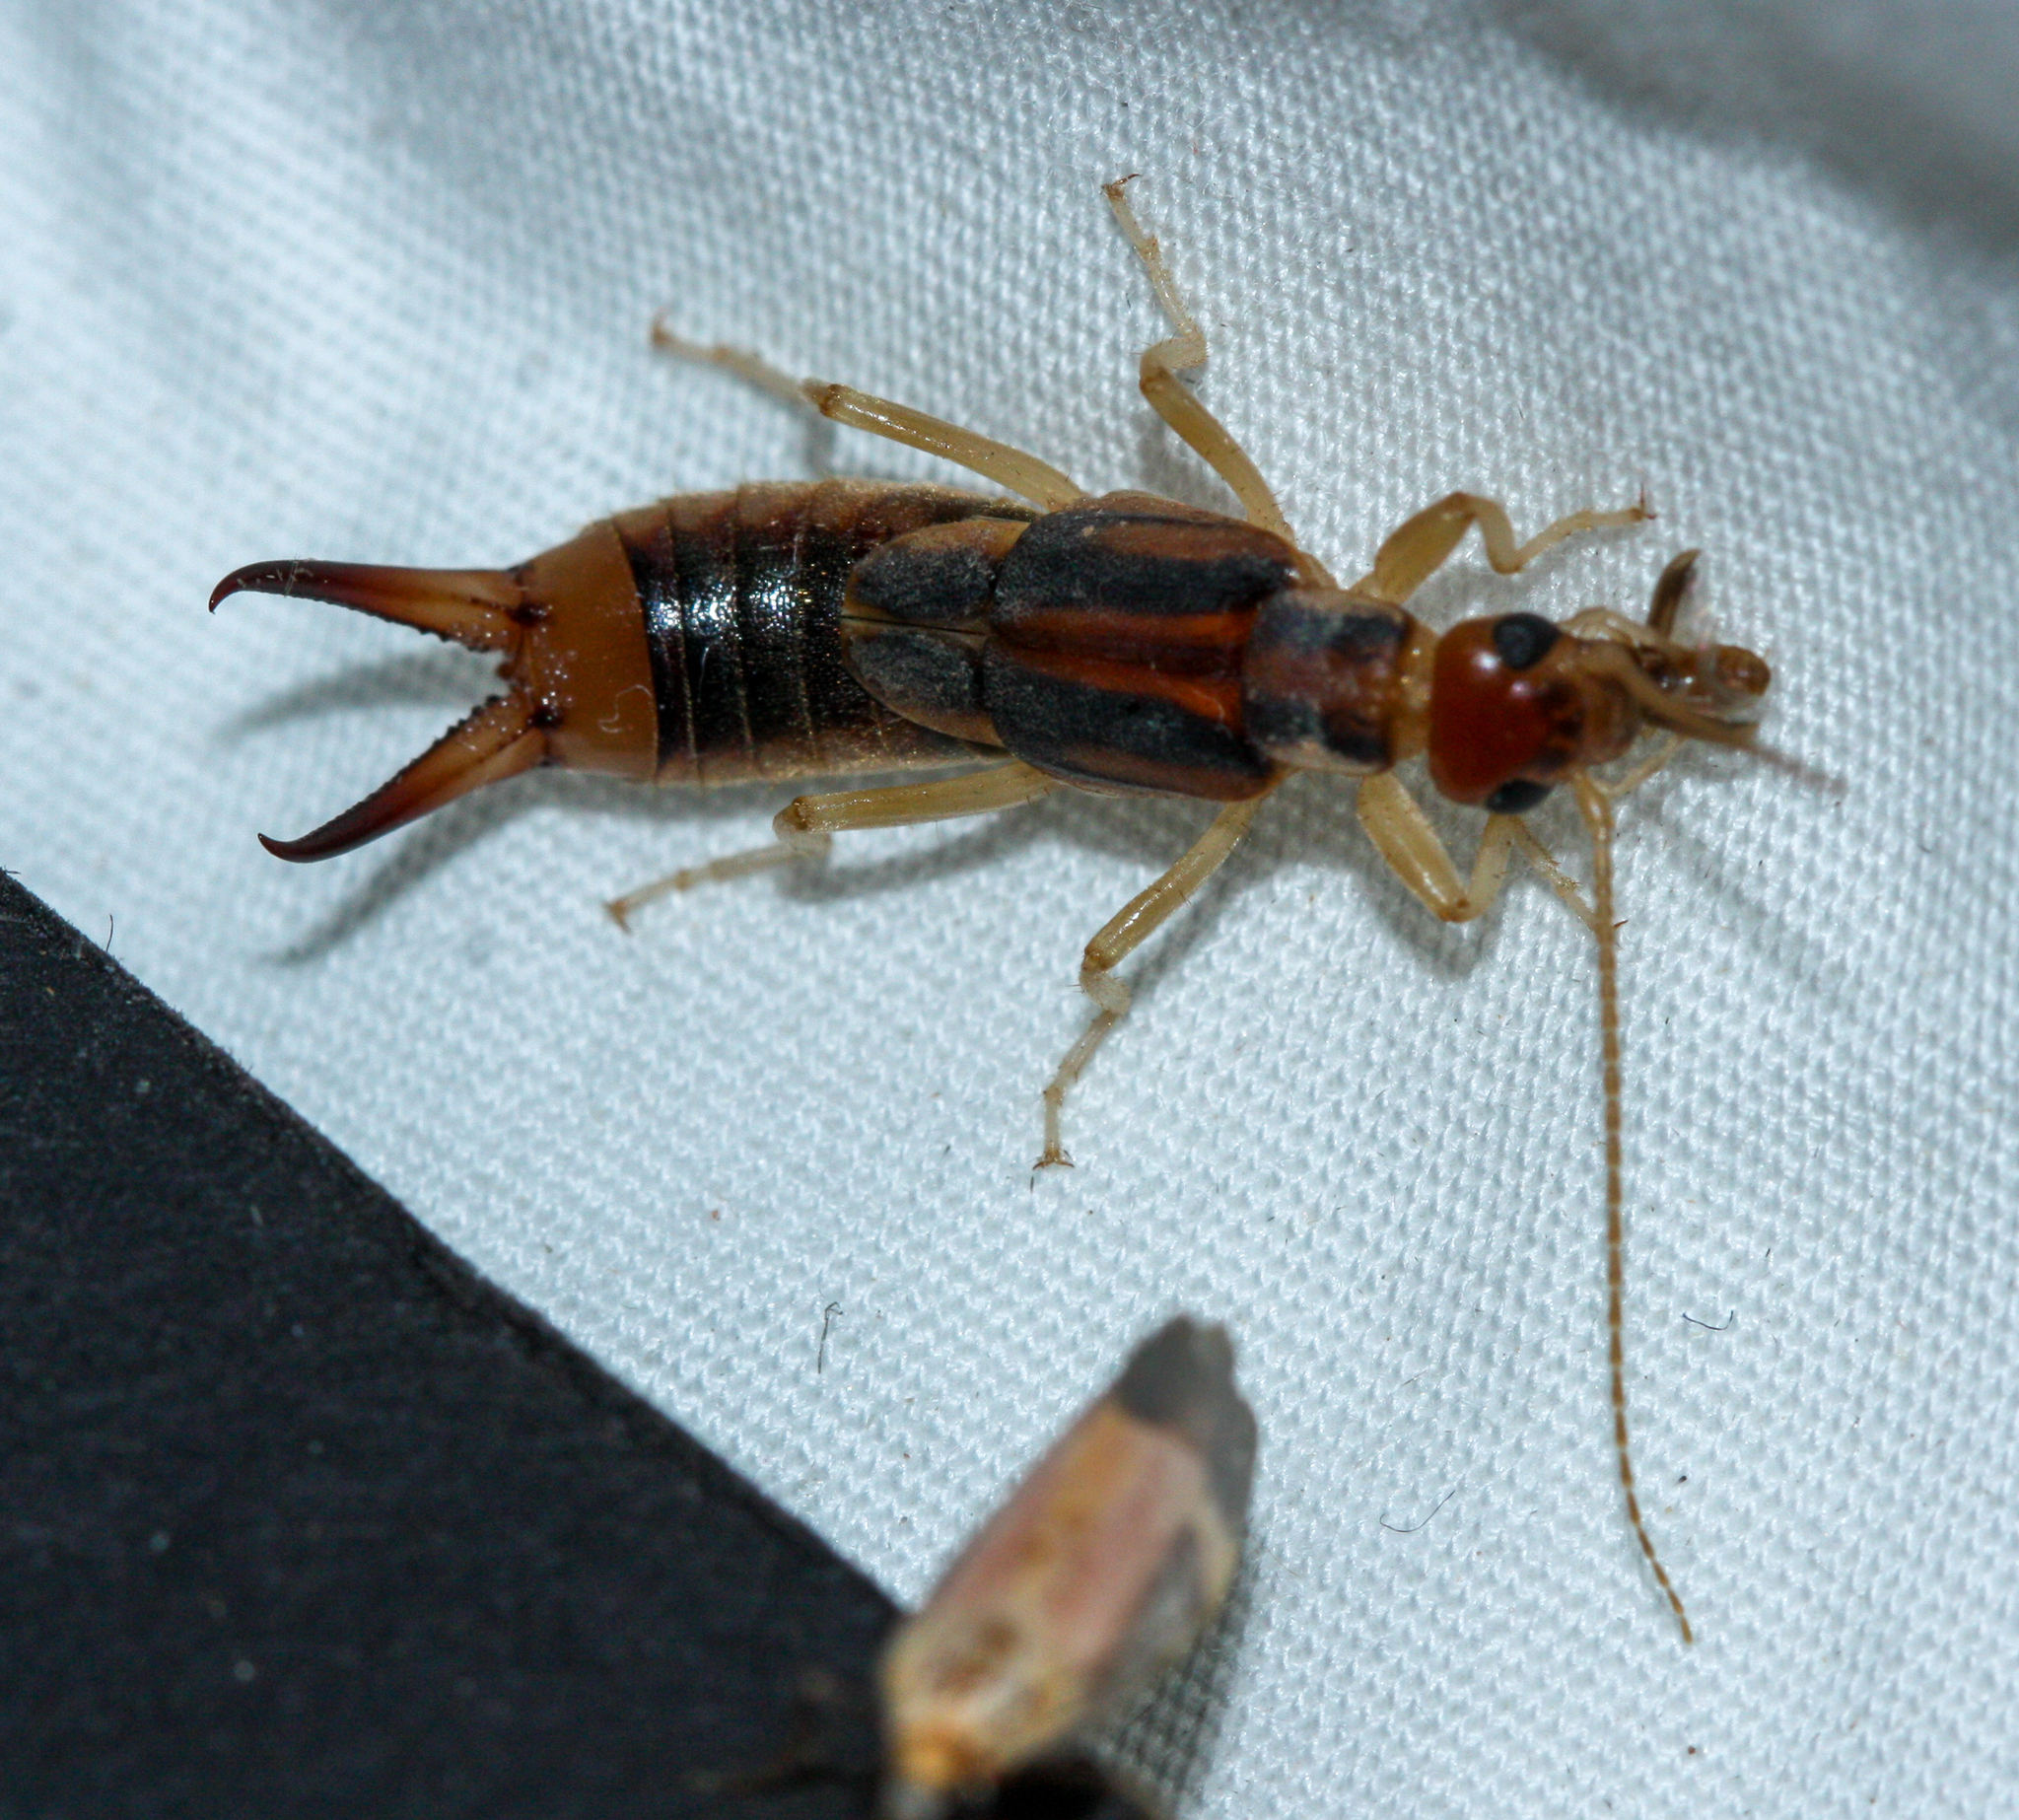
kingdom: Animalia
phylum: Arthropoda
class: Insecta
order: Dermaptera
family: Labiduridae
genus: Labidura
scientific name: Labidura riparia
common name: Striped earwig
